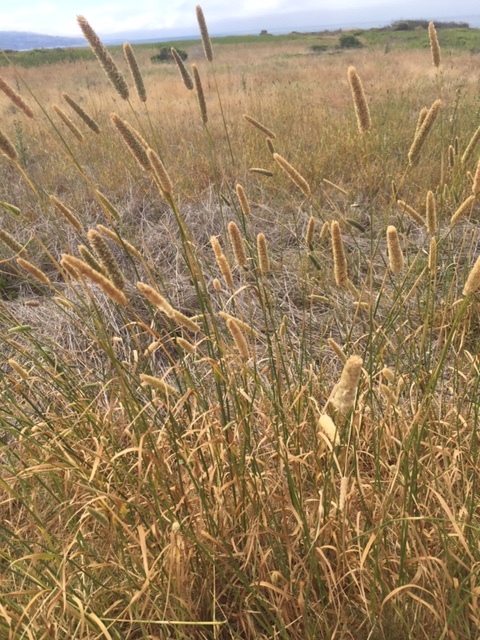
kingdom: Plantae
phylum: Tracheophyta
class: Liliopsida
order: Poales
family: Poaceae
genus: Phalaris
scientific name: Phalaris aquatica
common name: Bulbous canary-grass
